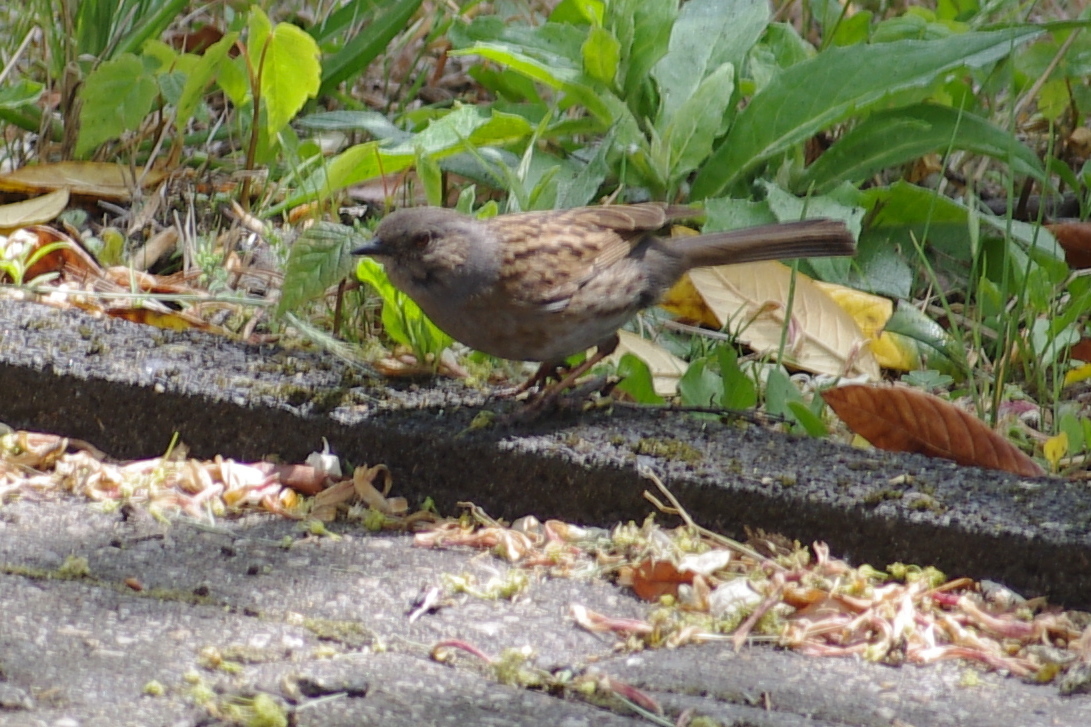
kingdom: Animalia
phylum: Chordata
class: Aves
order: Passeriformes
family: Prunellidae
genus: Prunella
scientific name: Prunella modularis
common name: Dunnock
